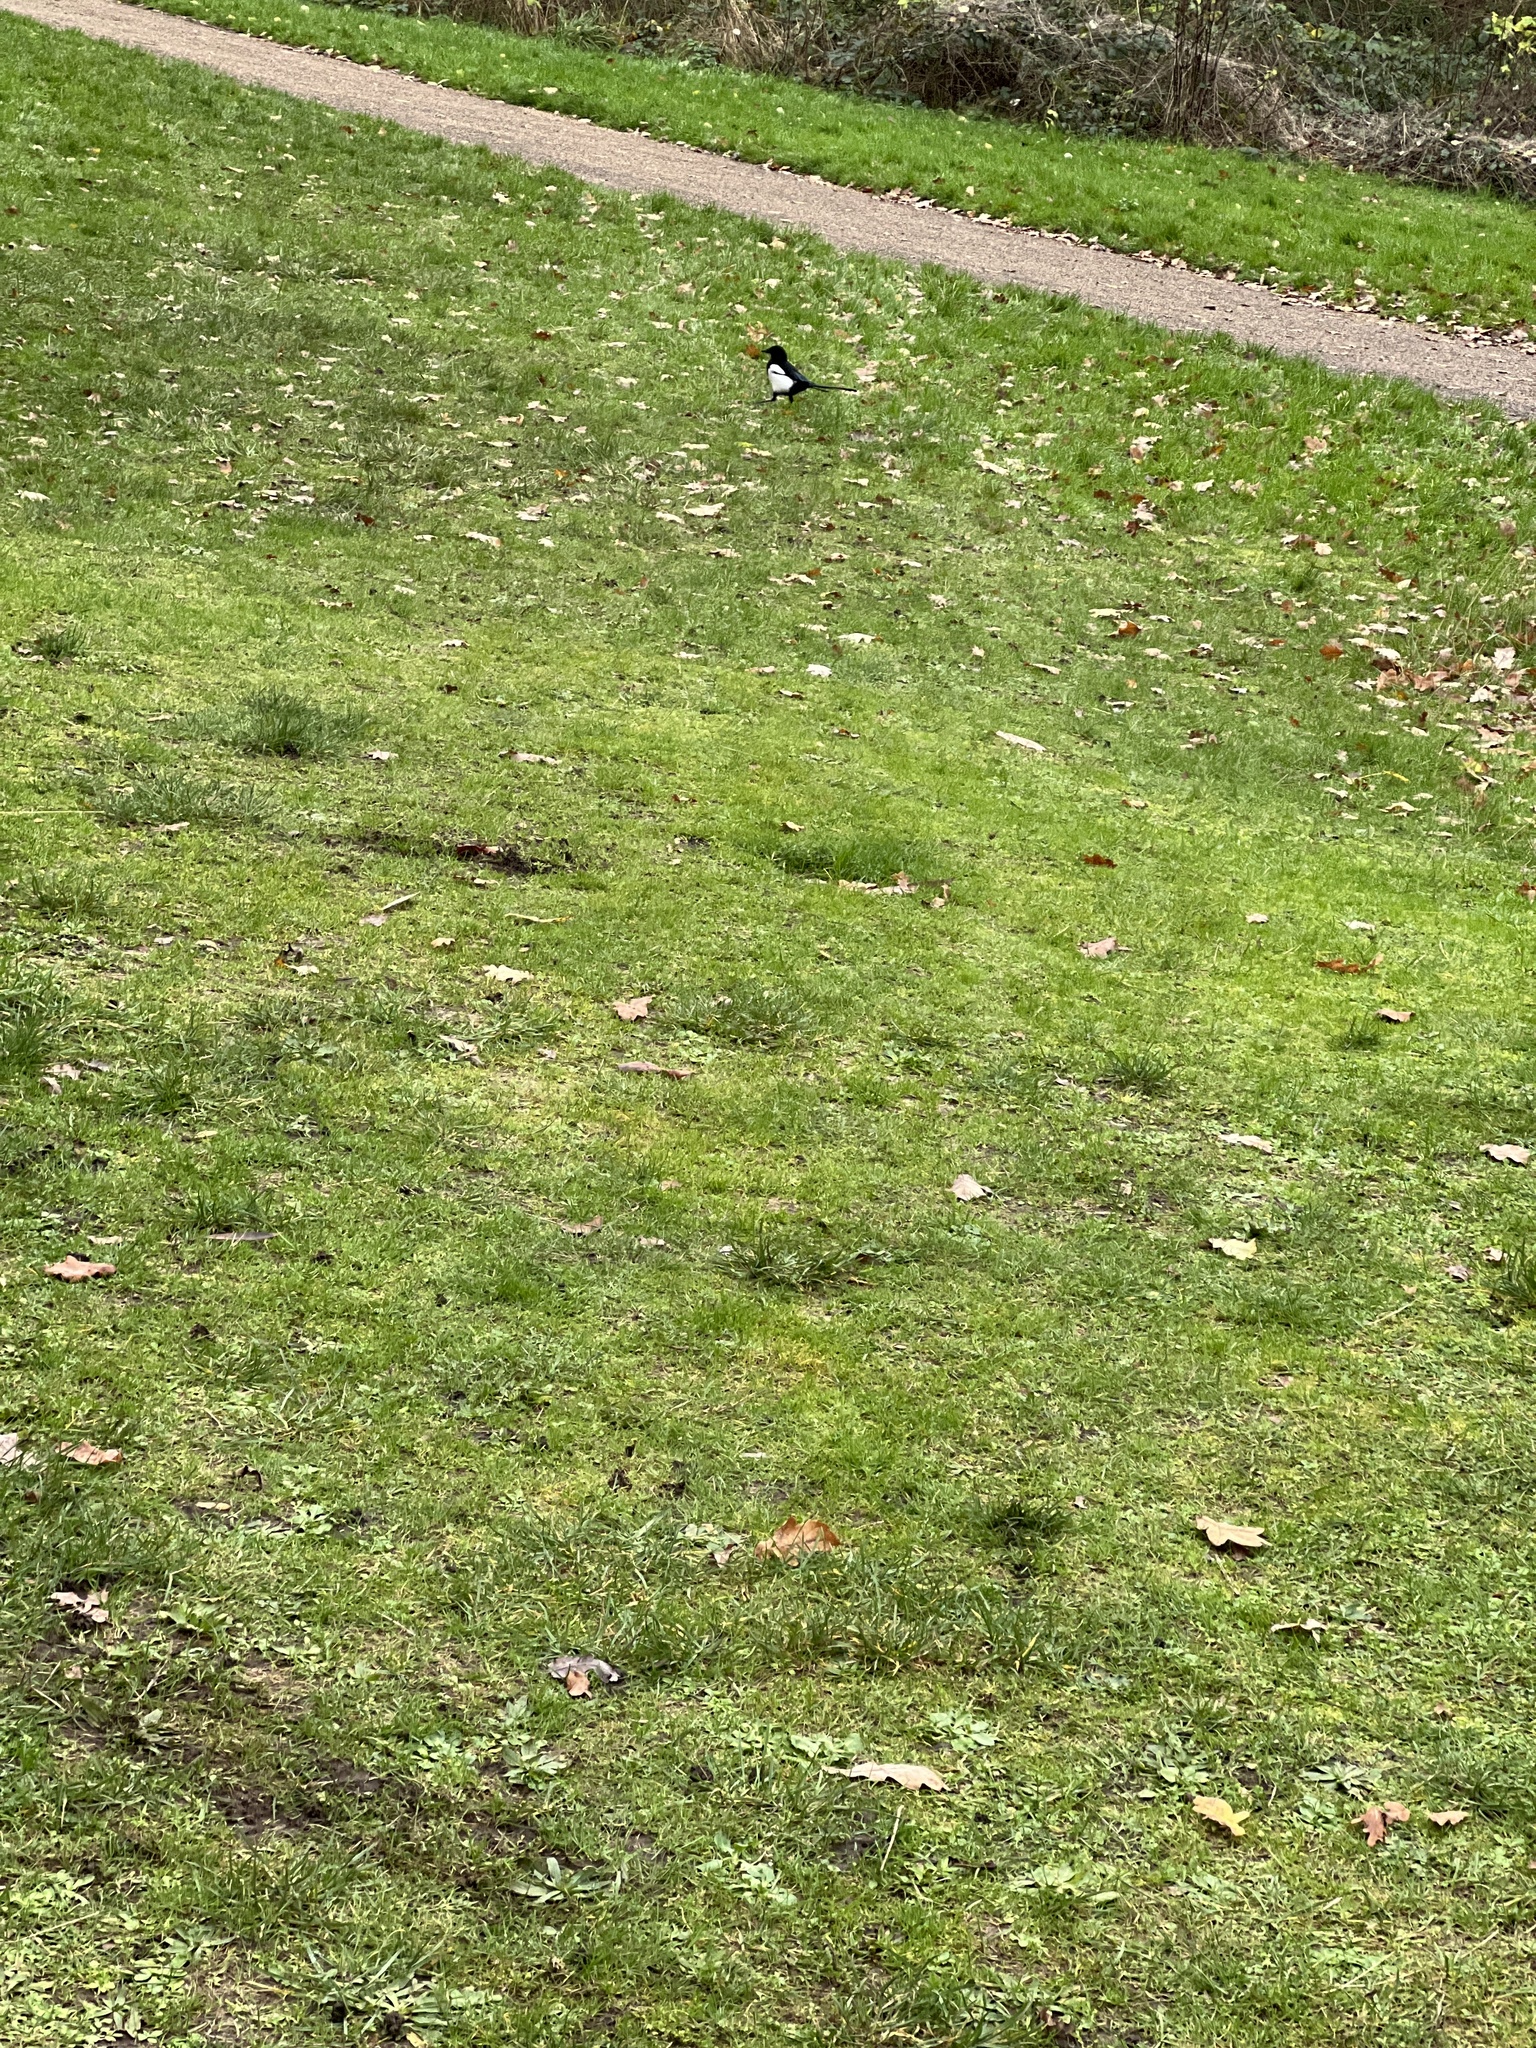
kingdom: Animalia
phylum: Chordata
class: Aves
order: Passeriformes
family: Corvidae
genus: Pica
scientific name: Pica pica
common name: Eurasian magpie
